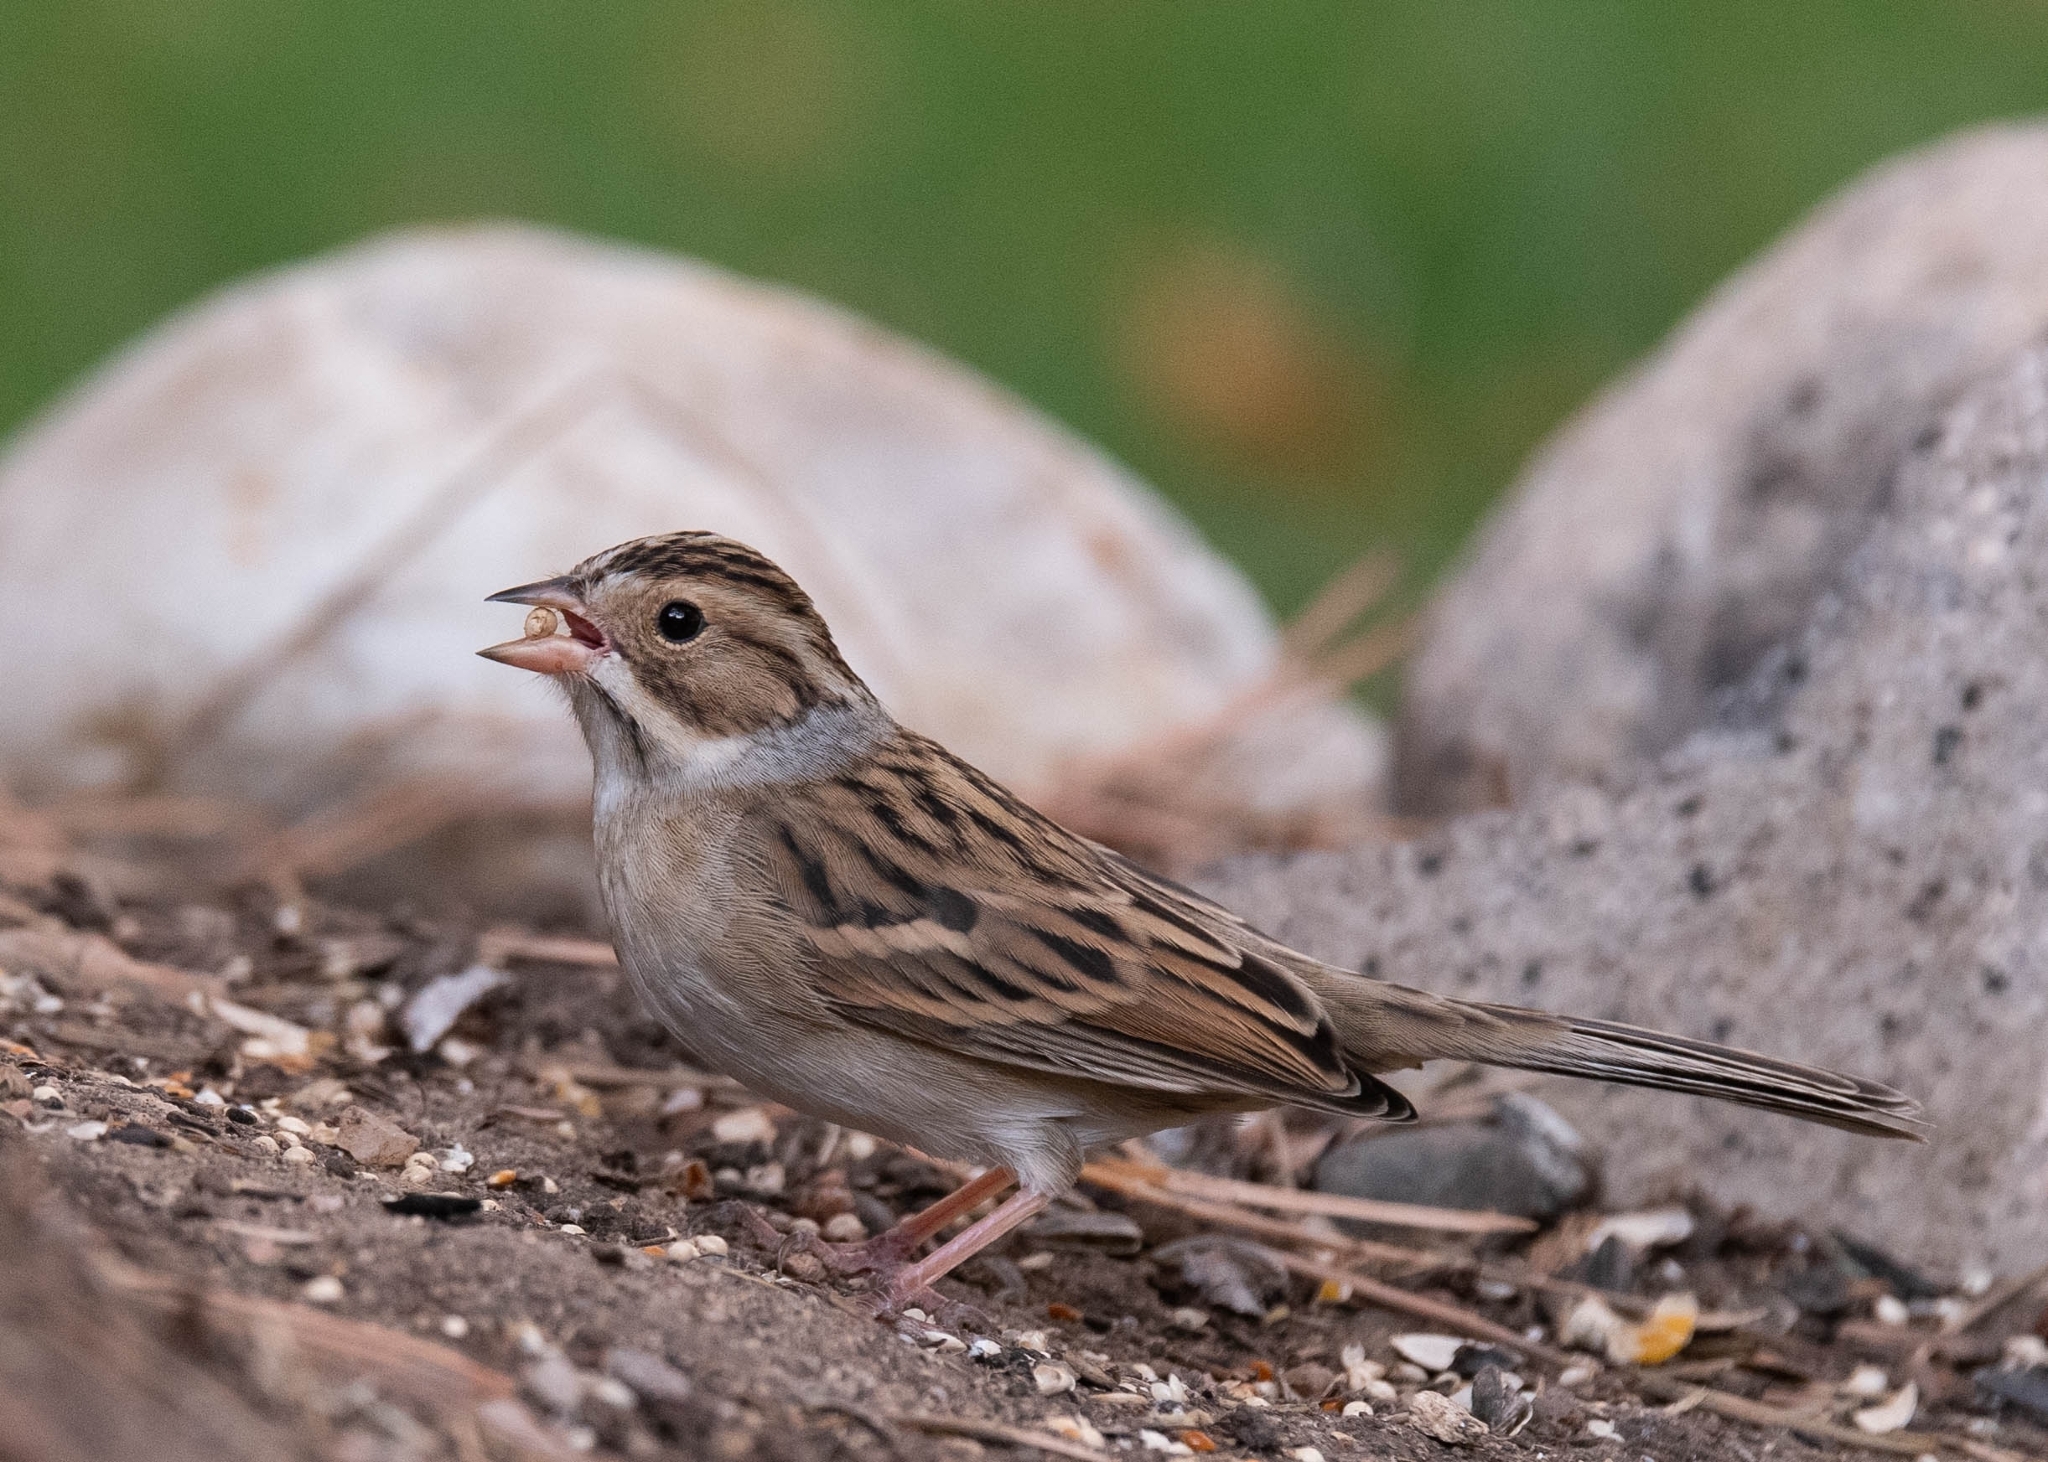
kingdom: Animalia
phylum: Chordata
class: Aves
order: Passeriformes
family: Passerellidae
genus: Spizella
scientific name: Spizella pallida
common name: Clay-colored sparrow
